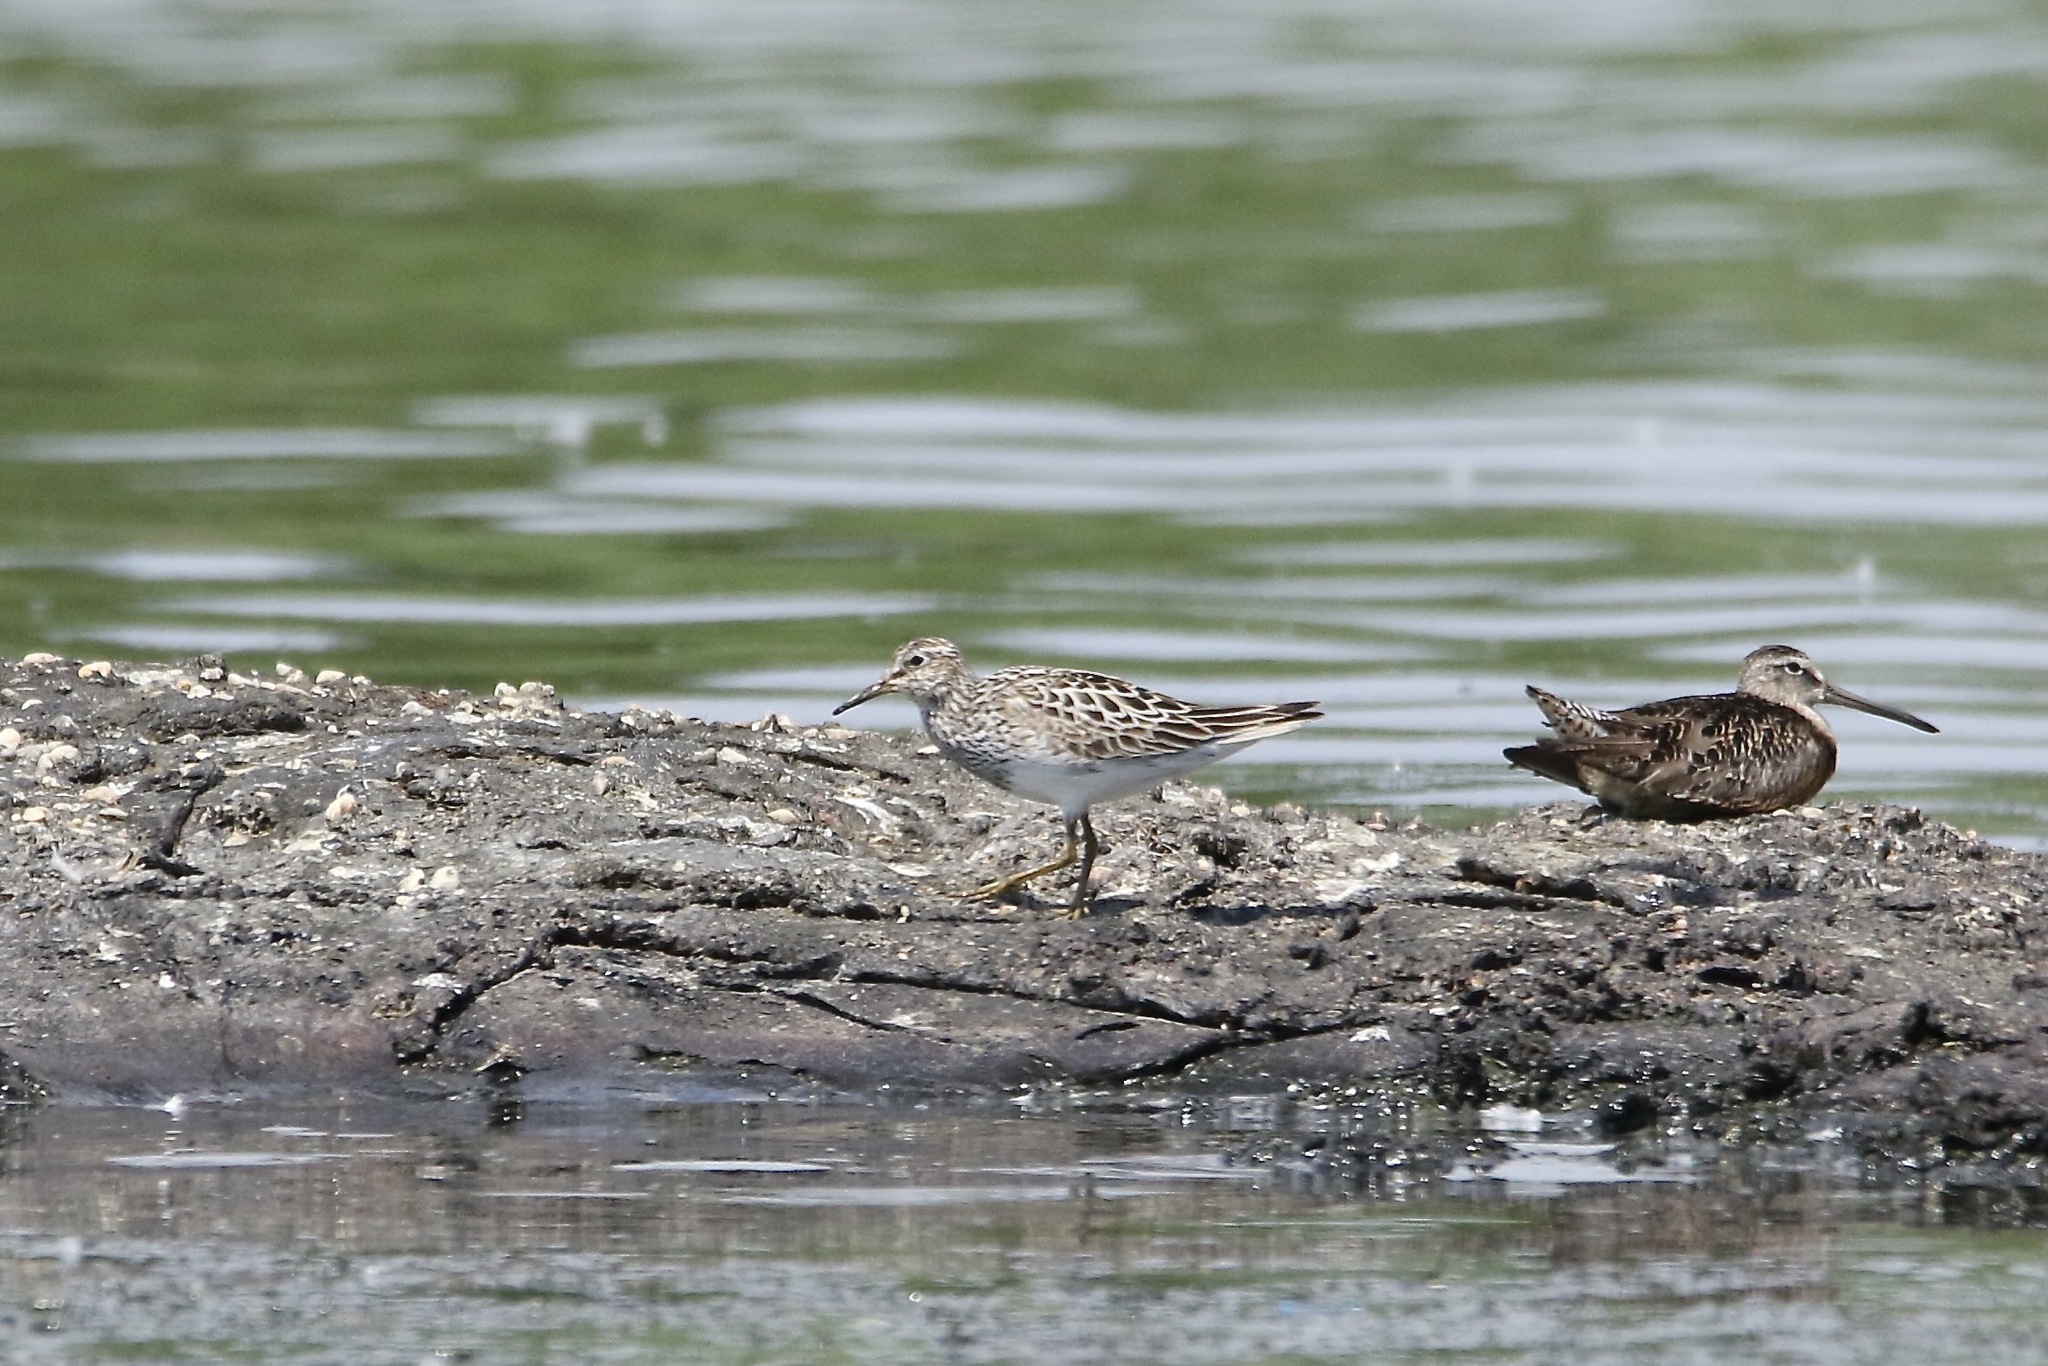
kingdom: Animalia
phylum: Chordata
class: Aves
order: Charadriiformes
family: Scolopacidae
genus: Calidris
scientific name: Calidris melanotos
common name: Pectoral sandpiper
